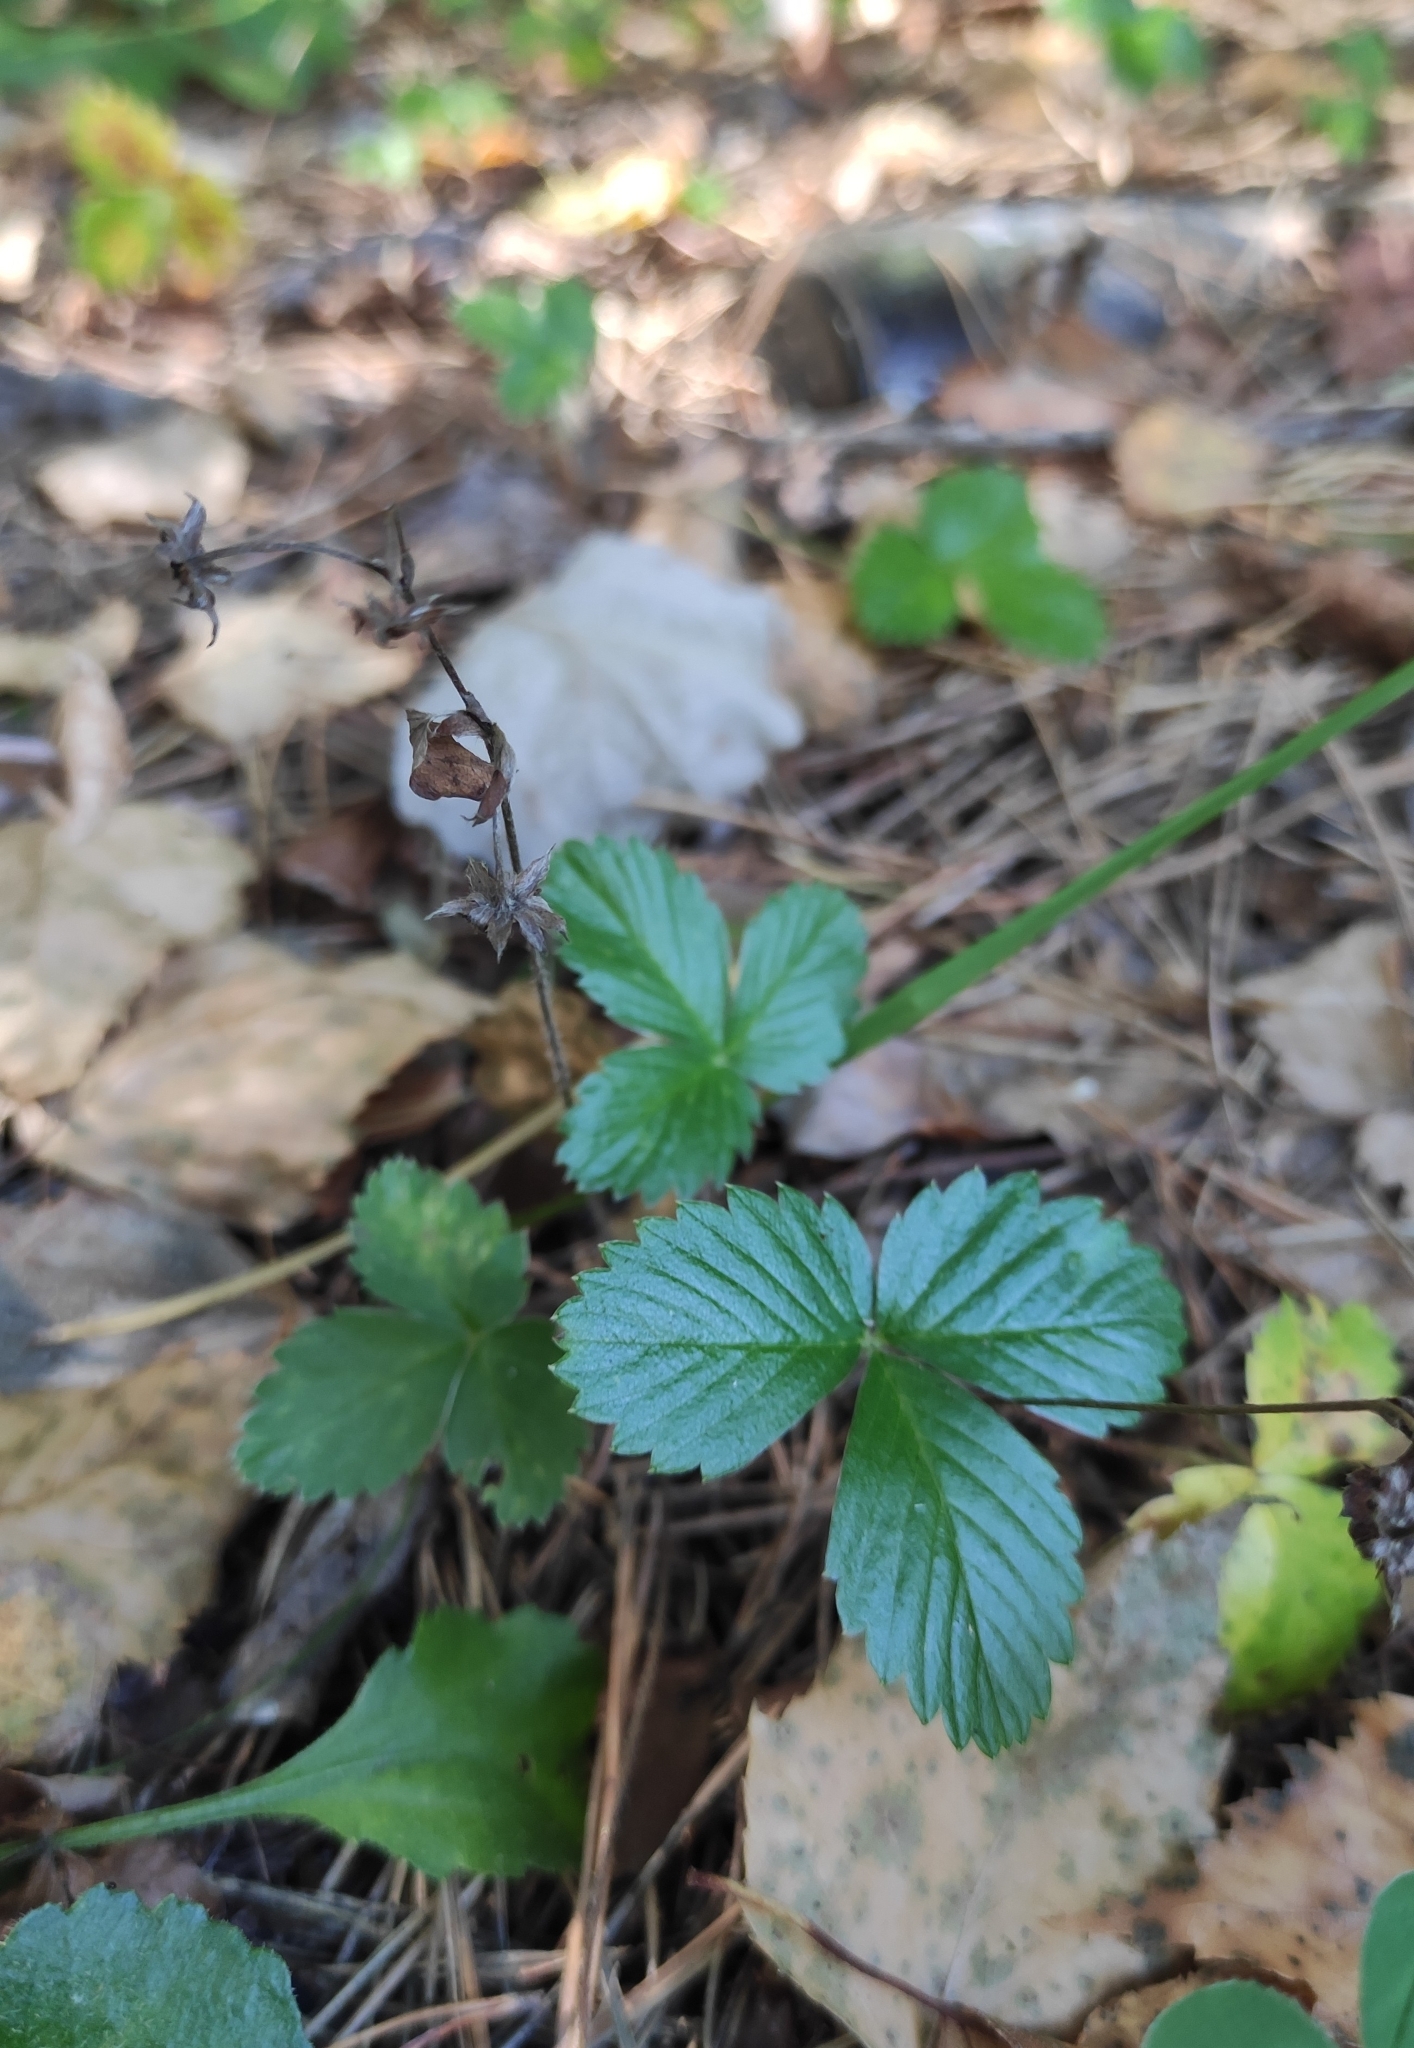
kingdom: Plantae
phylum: Tracheophyta
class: Magnoliopsida
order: Rosales
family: Rosaceae
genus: Fragaria
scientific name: Fragaria vesca
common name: Wild strawberry
